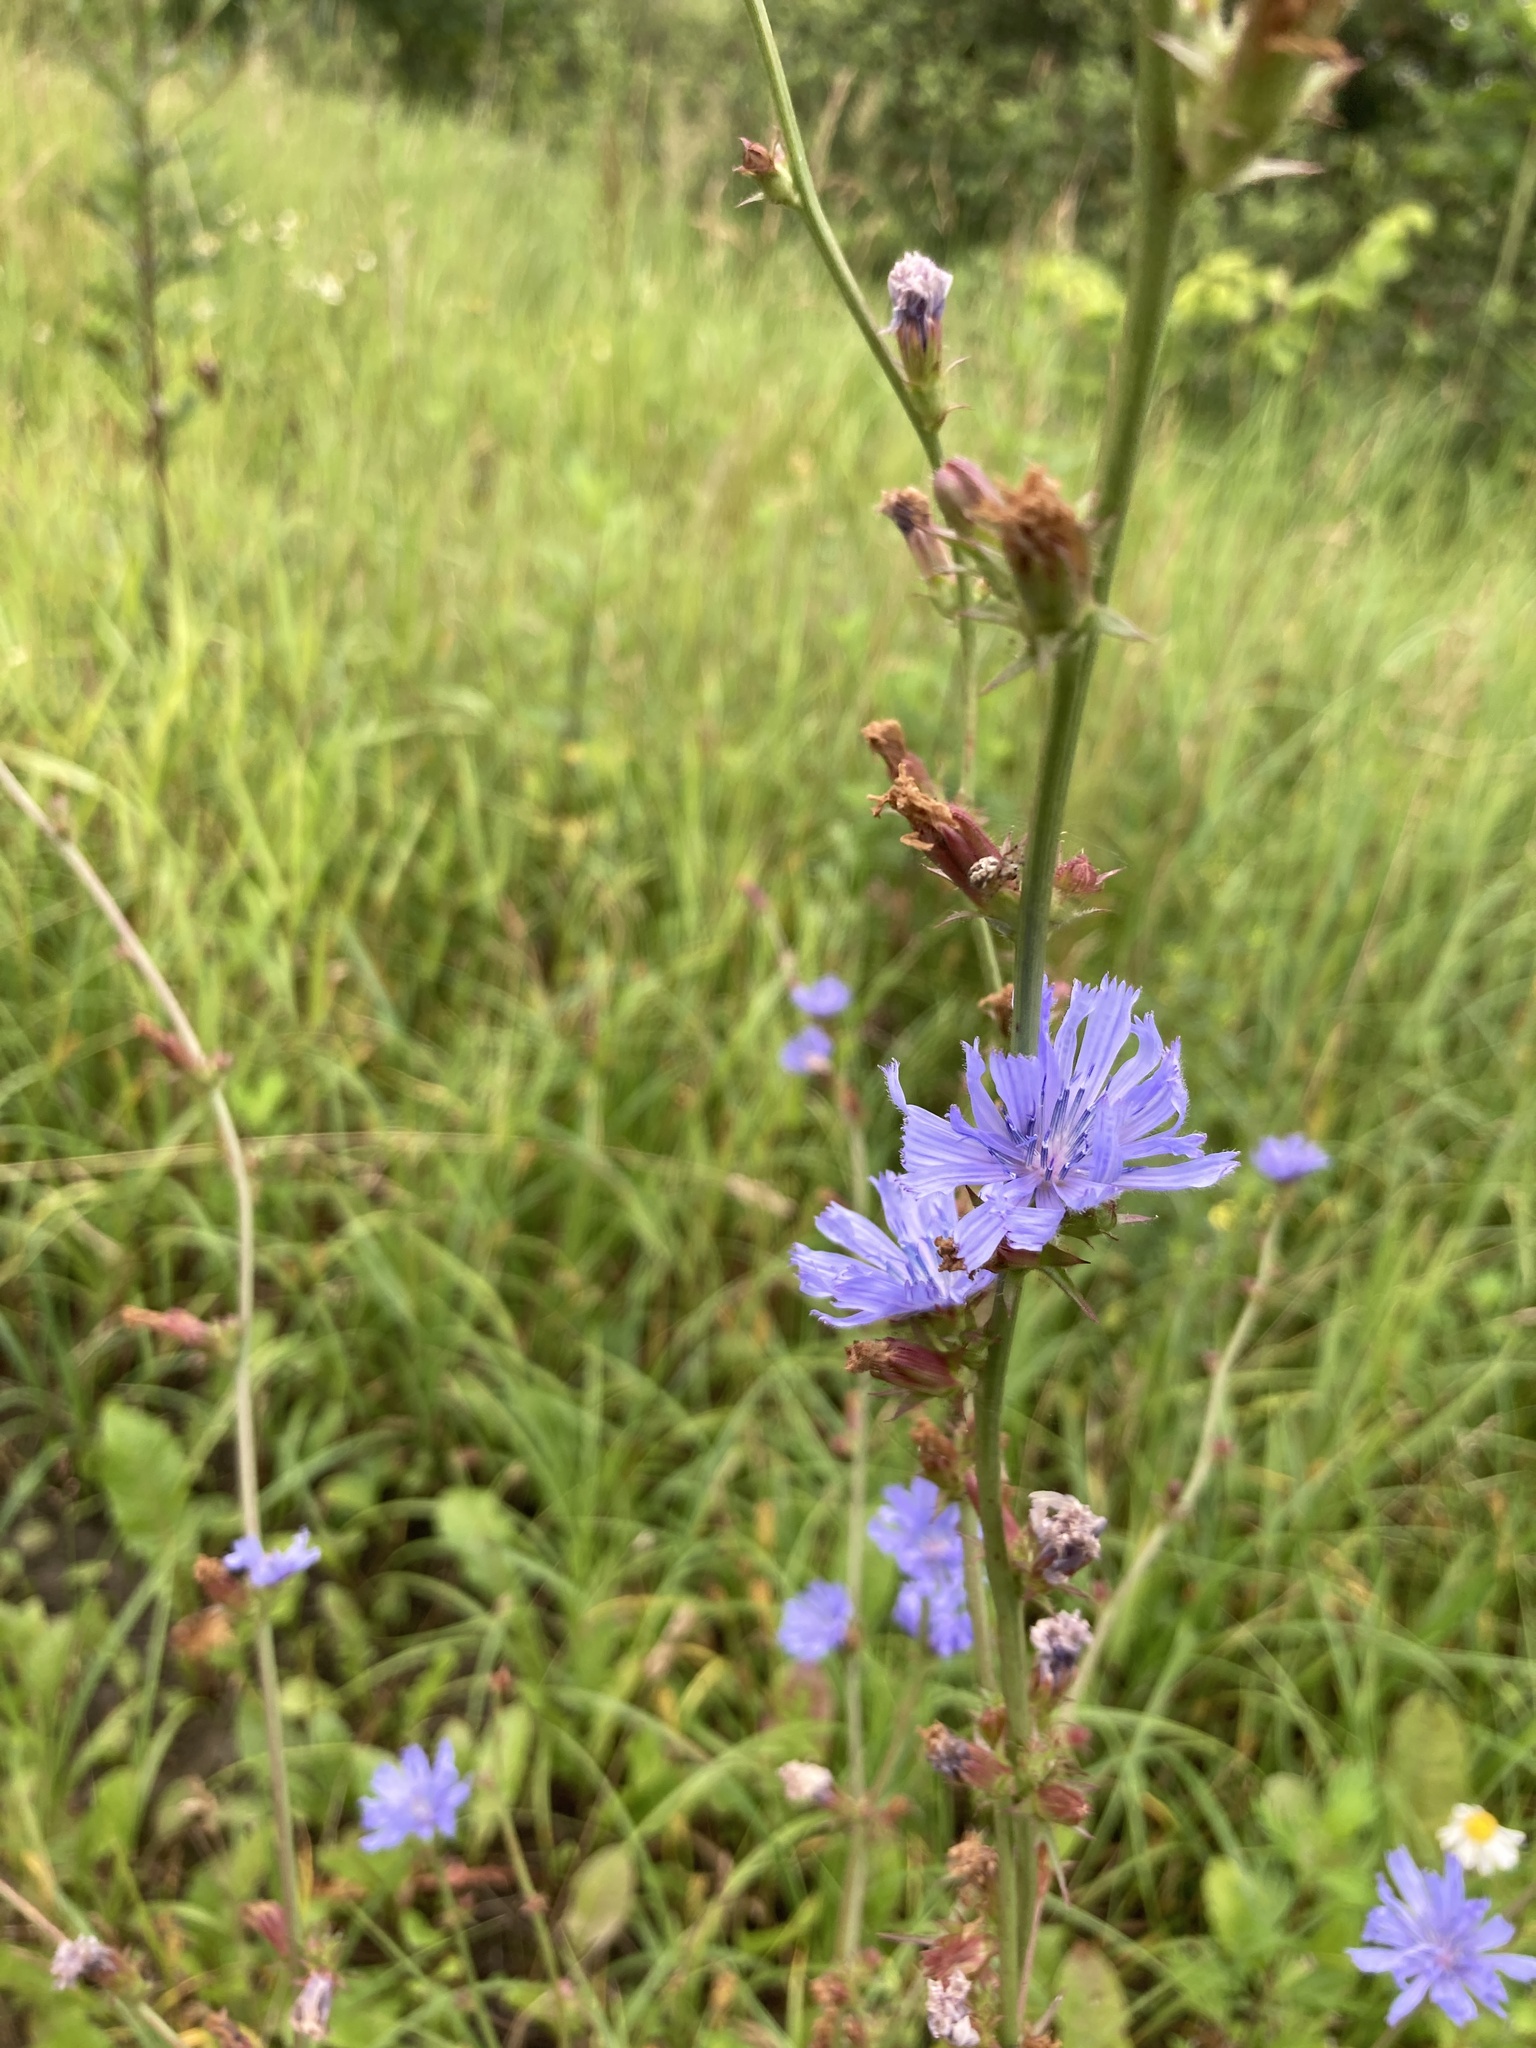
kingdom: Plantae
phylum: Tracheophyta
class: Magnoliopsida
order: Asterales
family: Asteraceae
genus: Cichorium
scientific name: Cichorium intybus
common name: Chicory
